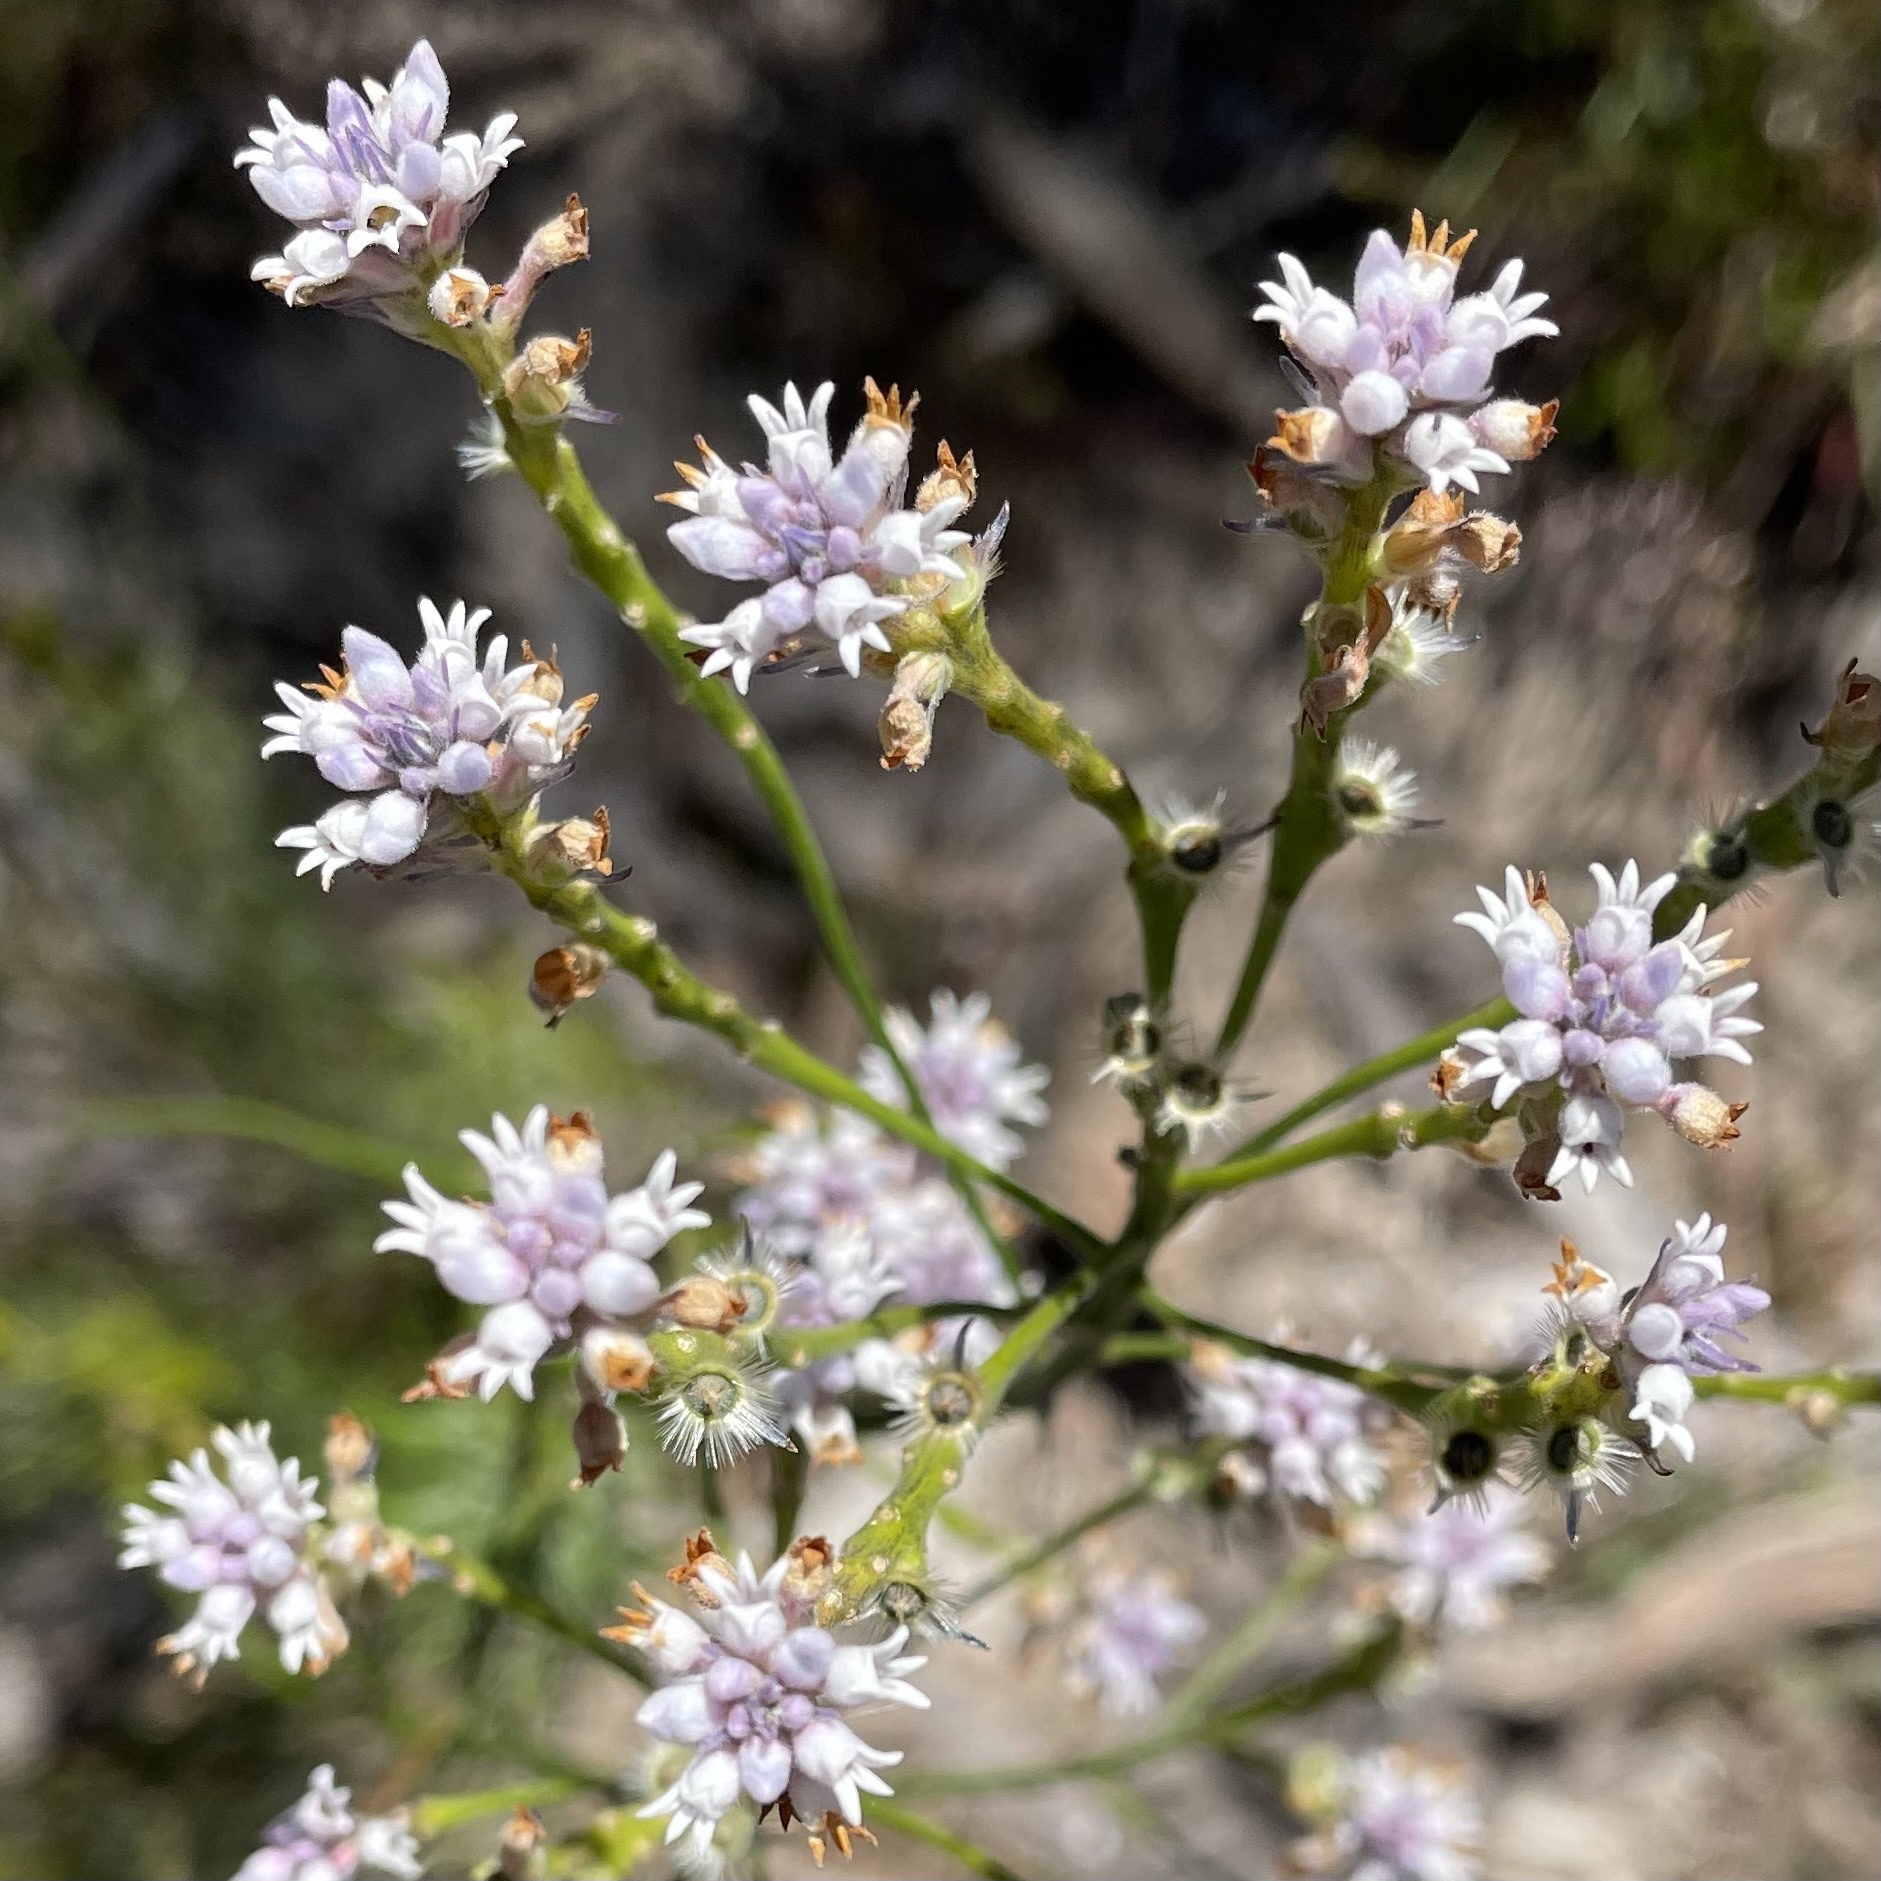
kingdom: Plantae
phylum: Tracheophyta
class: Magnoliopsida
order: Proteales
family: Proteaceae
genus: Conospermum
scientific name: Conospermum patens
